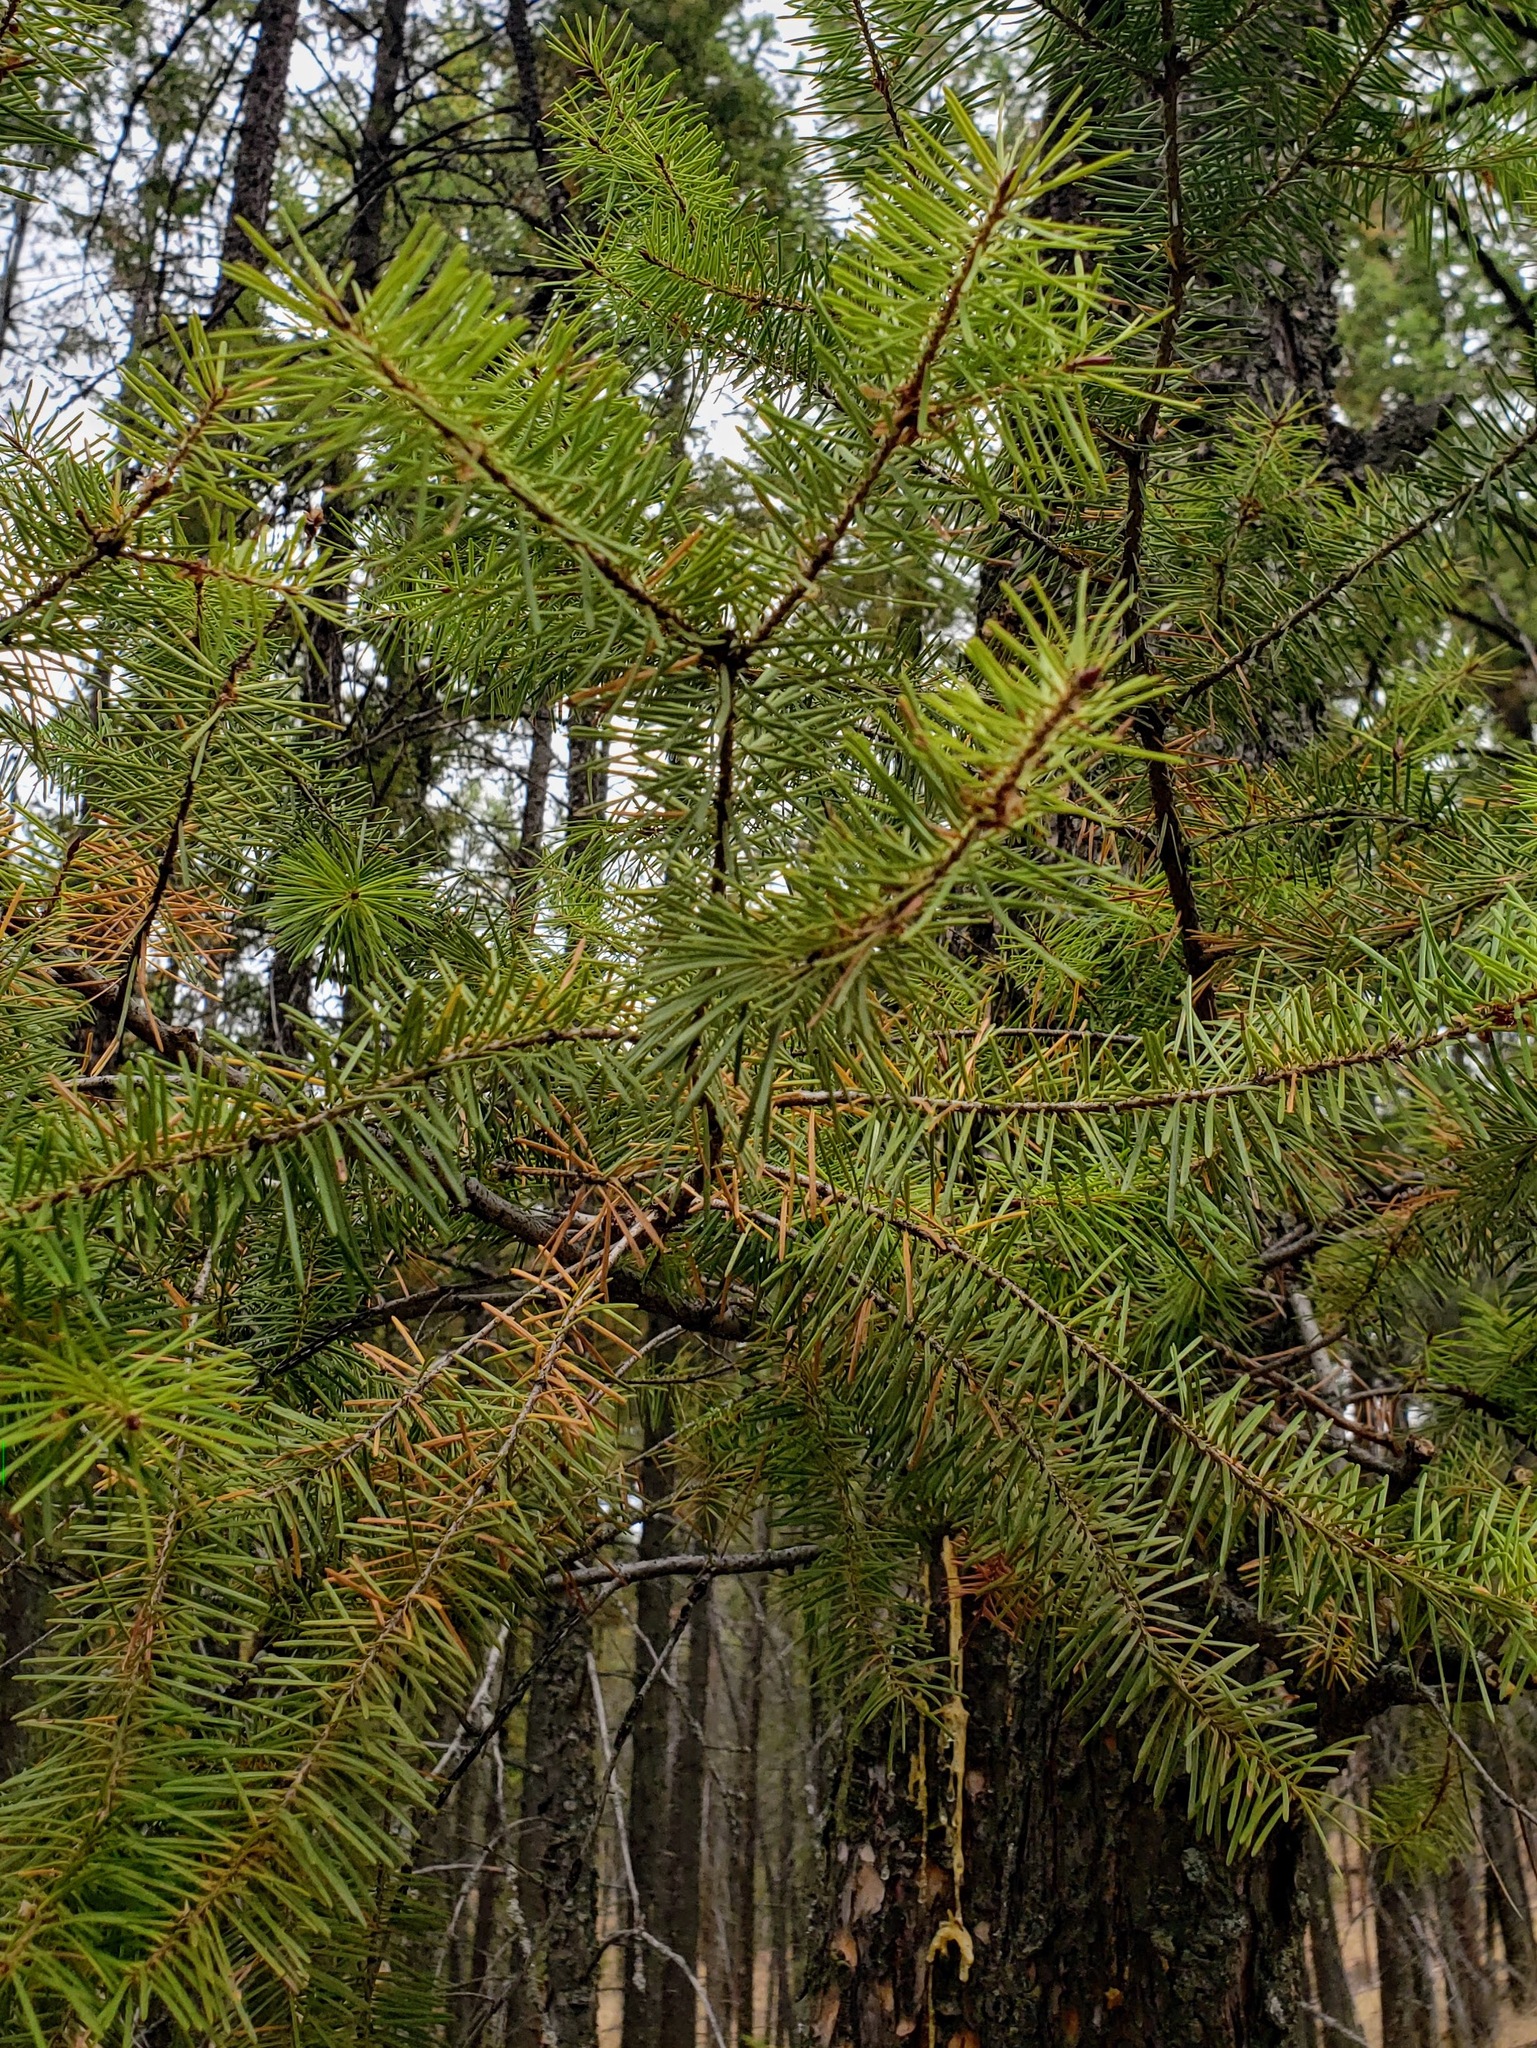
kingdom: Plantae
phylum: Tracheophyta
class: Pinopsida
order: Pinales
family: Pinaceae
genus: Pseudotsuga
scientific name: Pseudotsuga menziesii
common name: Douglas fir
